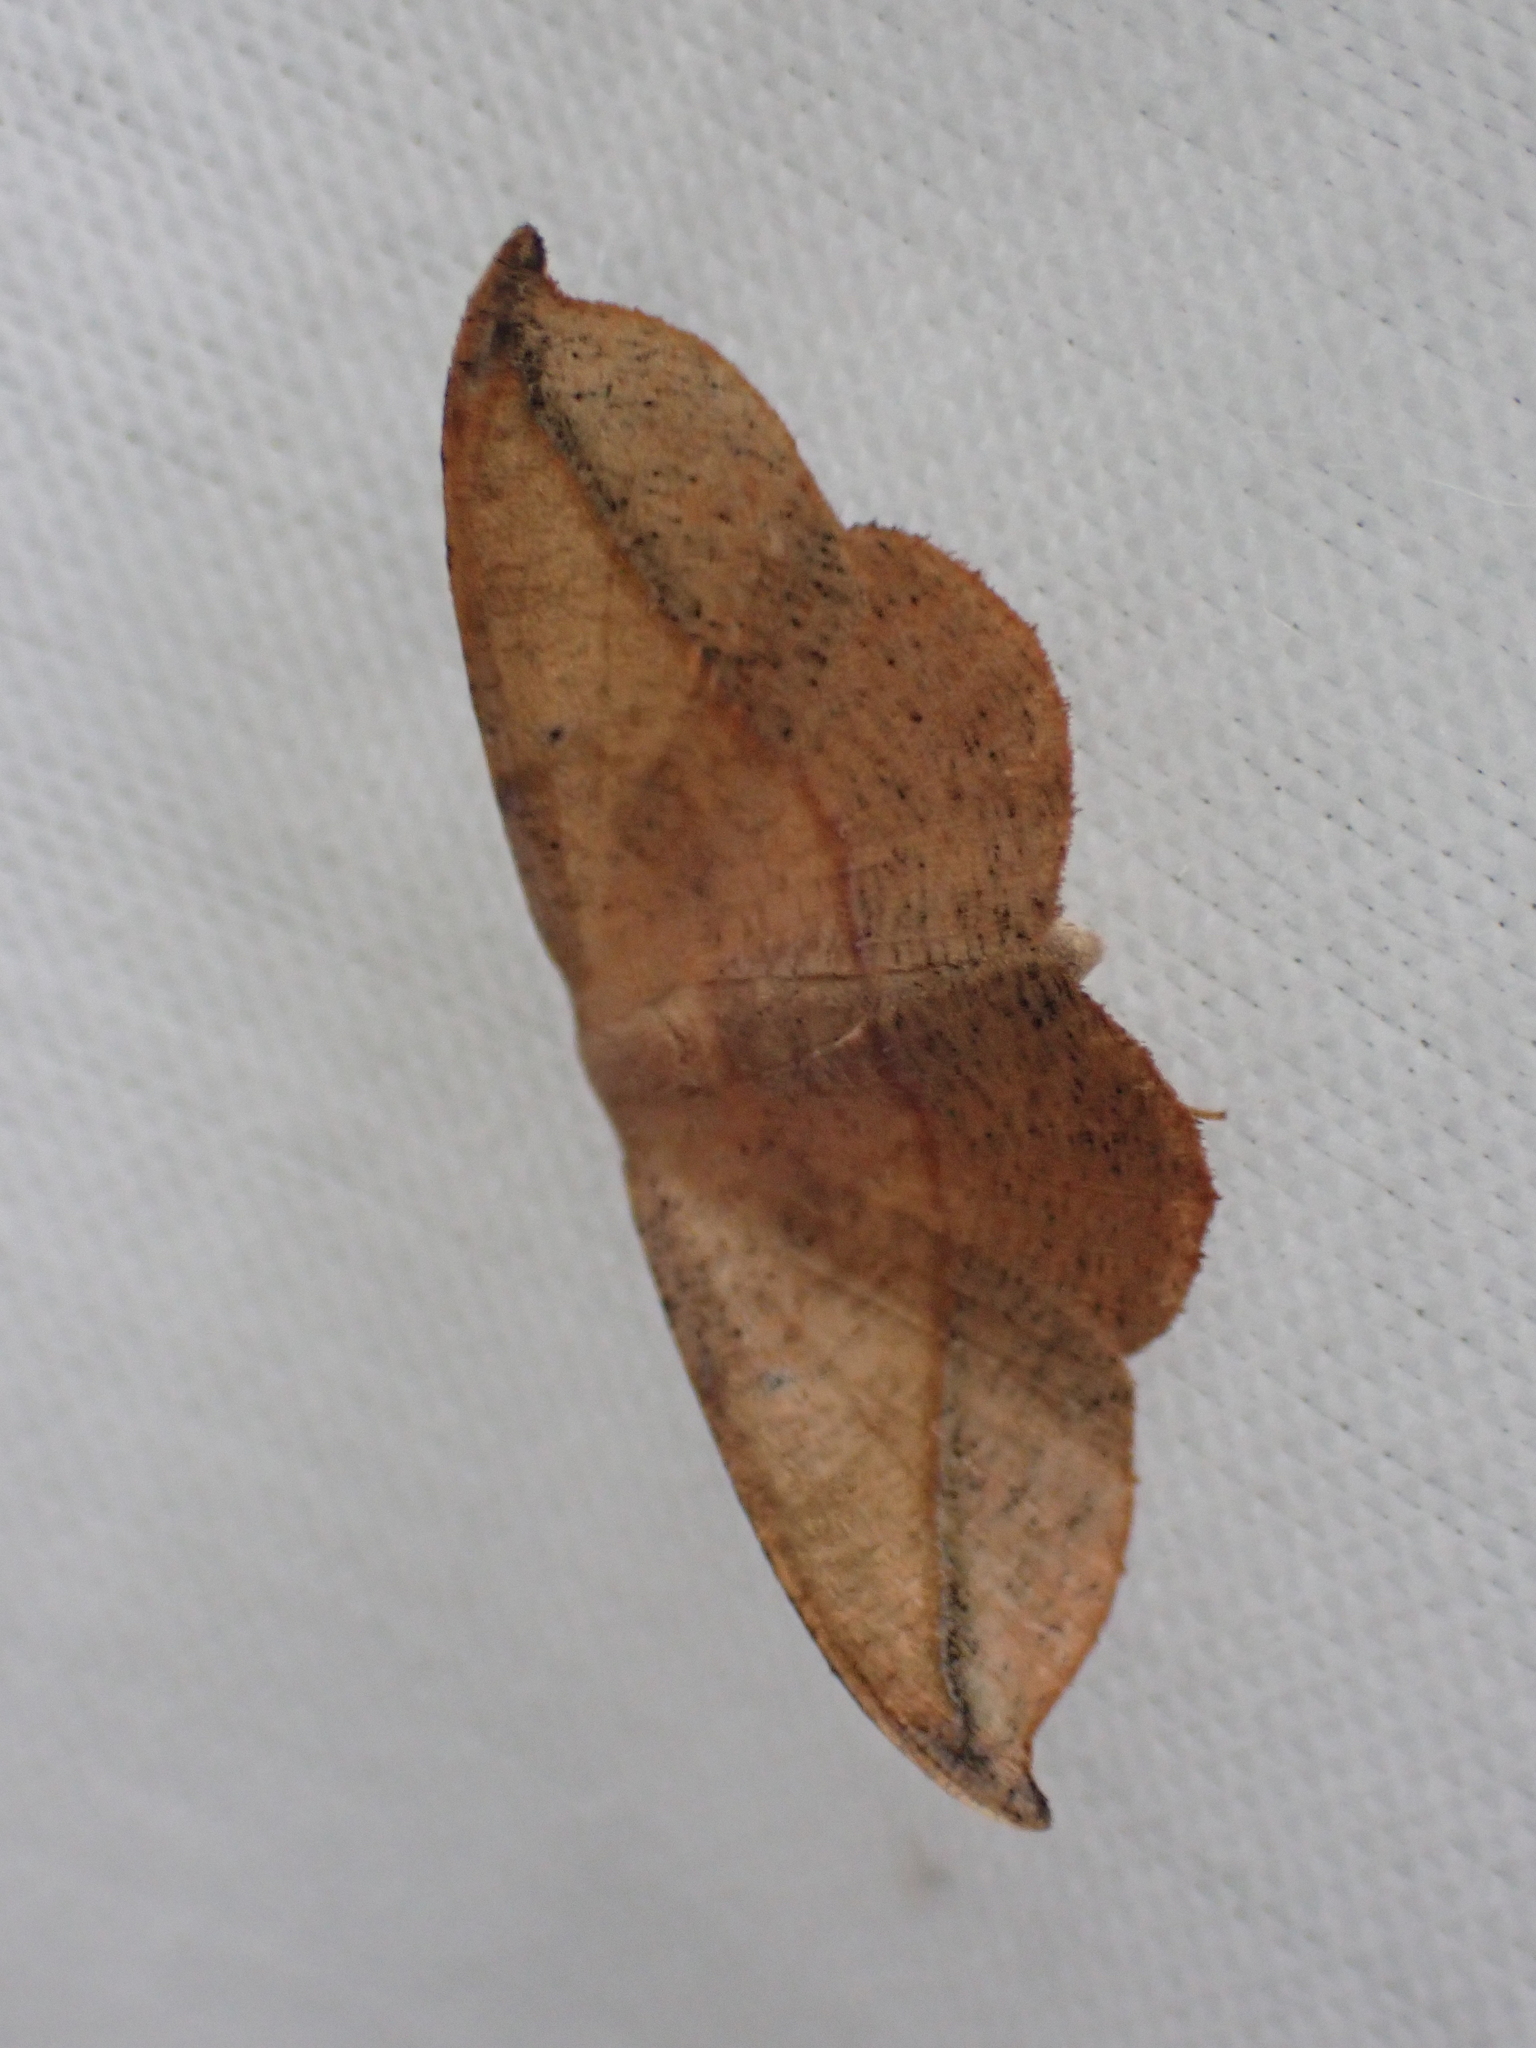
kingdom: Animalia
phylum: Arthropoda
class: Insecta
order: Lepidoptera
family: Geometridae
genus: Patalene
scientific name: Patalene olyzonaria
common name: Juniper geometer moth
